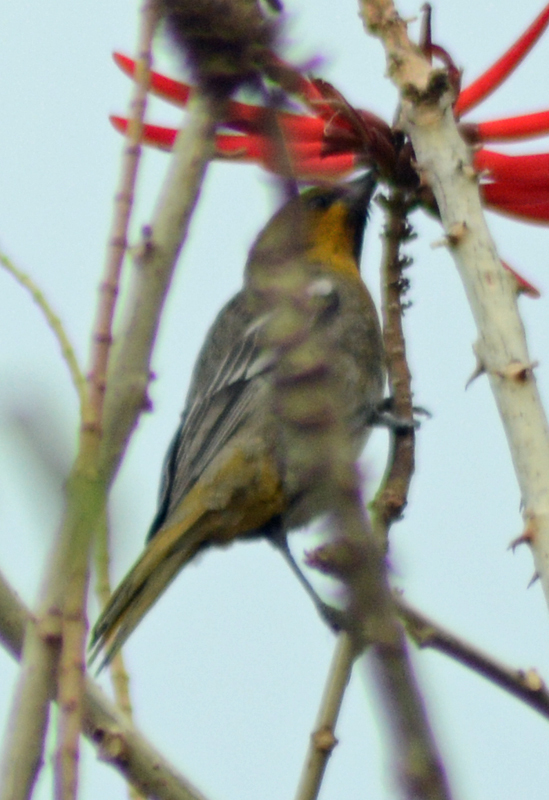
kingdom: Animalia
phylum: Chordata
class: Aves
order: Passeriformes
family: Icteridae
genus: Icterus
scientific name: Icterus abeillei
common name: Black-backed oriole
